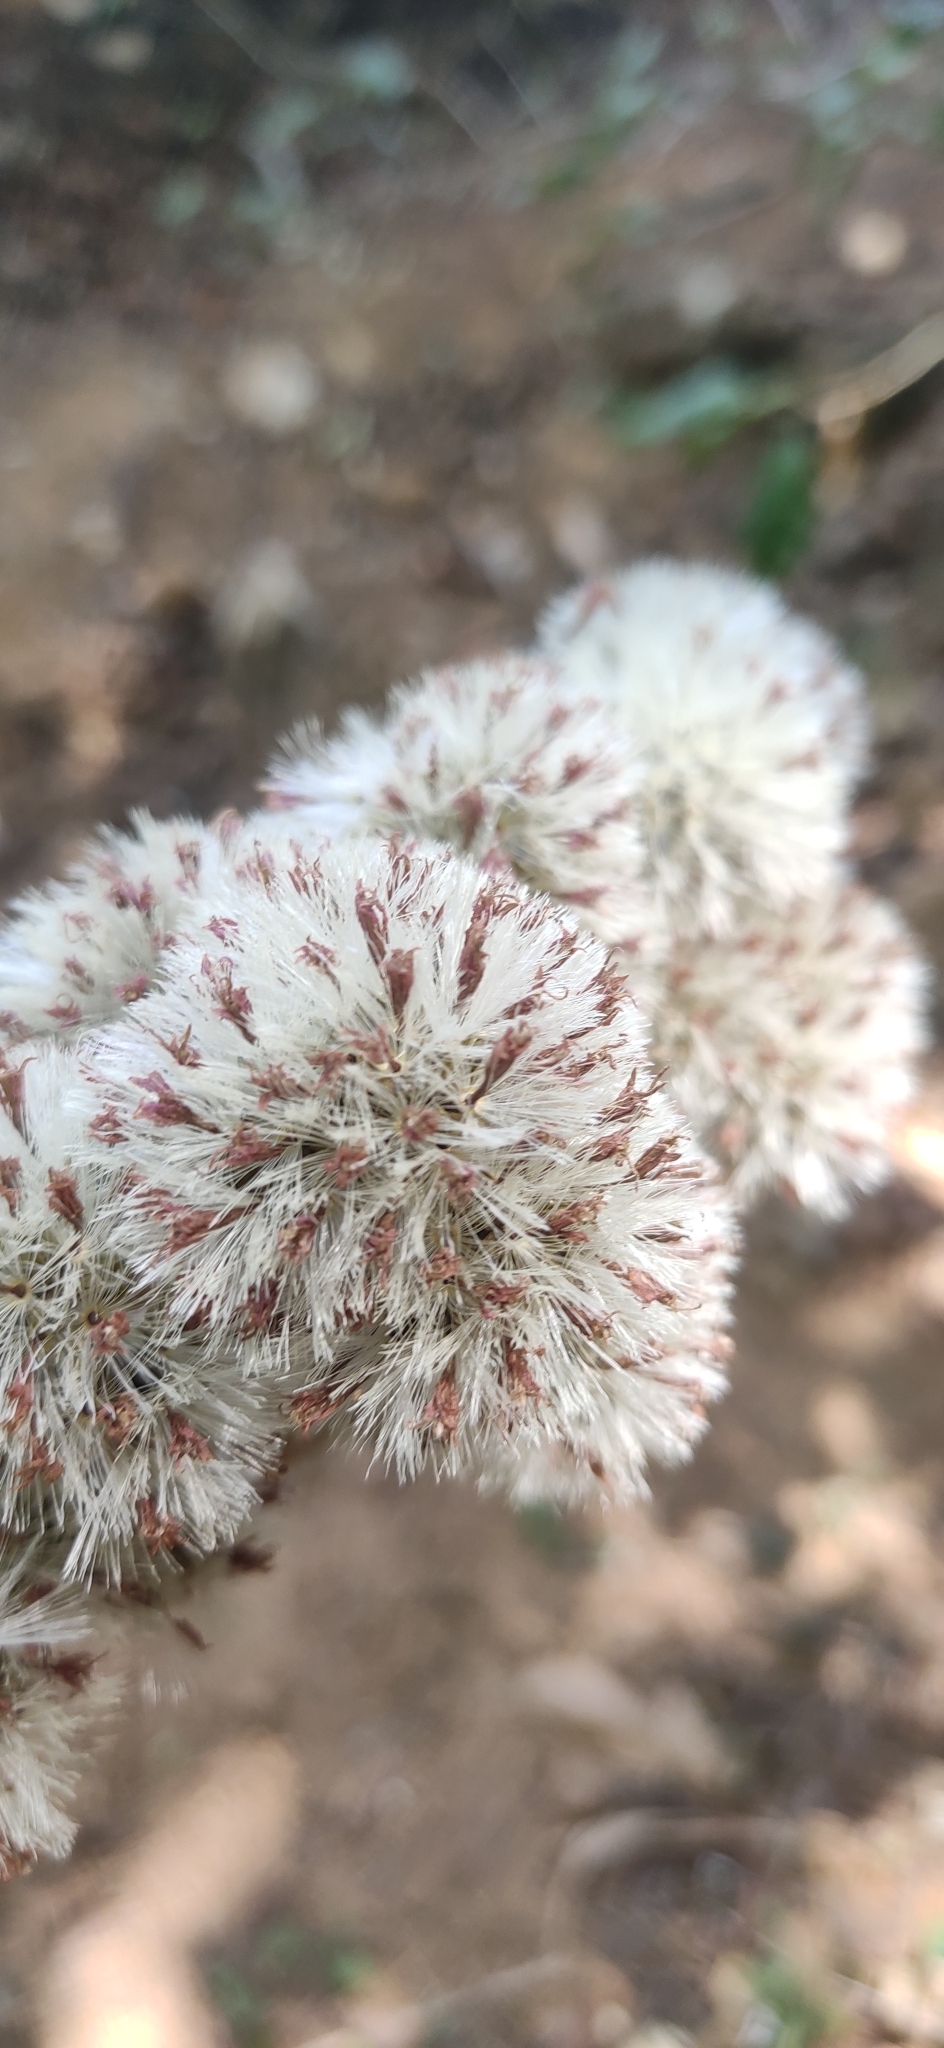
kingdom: Plantae
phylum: Tracheophyta
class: Magnoliopsida
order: Asterales
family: Asteraceae
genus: Strobocalyx
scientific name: Strobocalyx arborea
